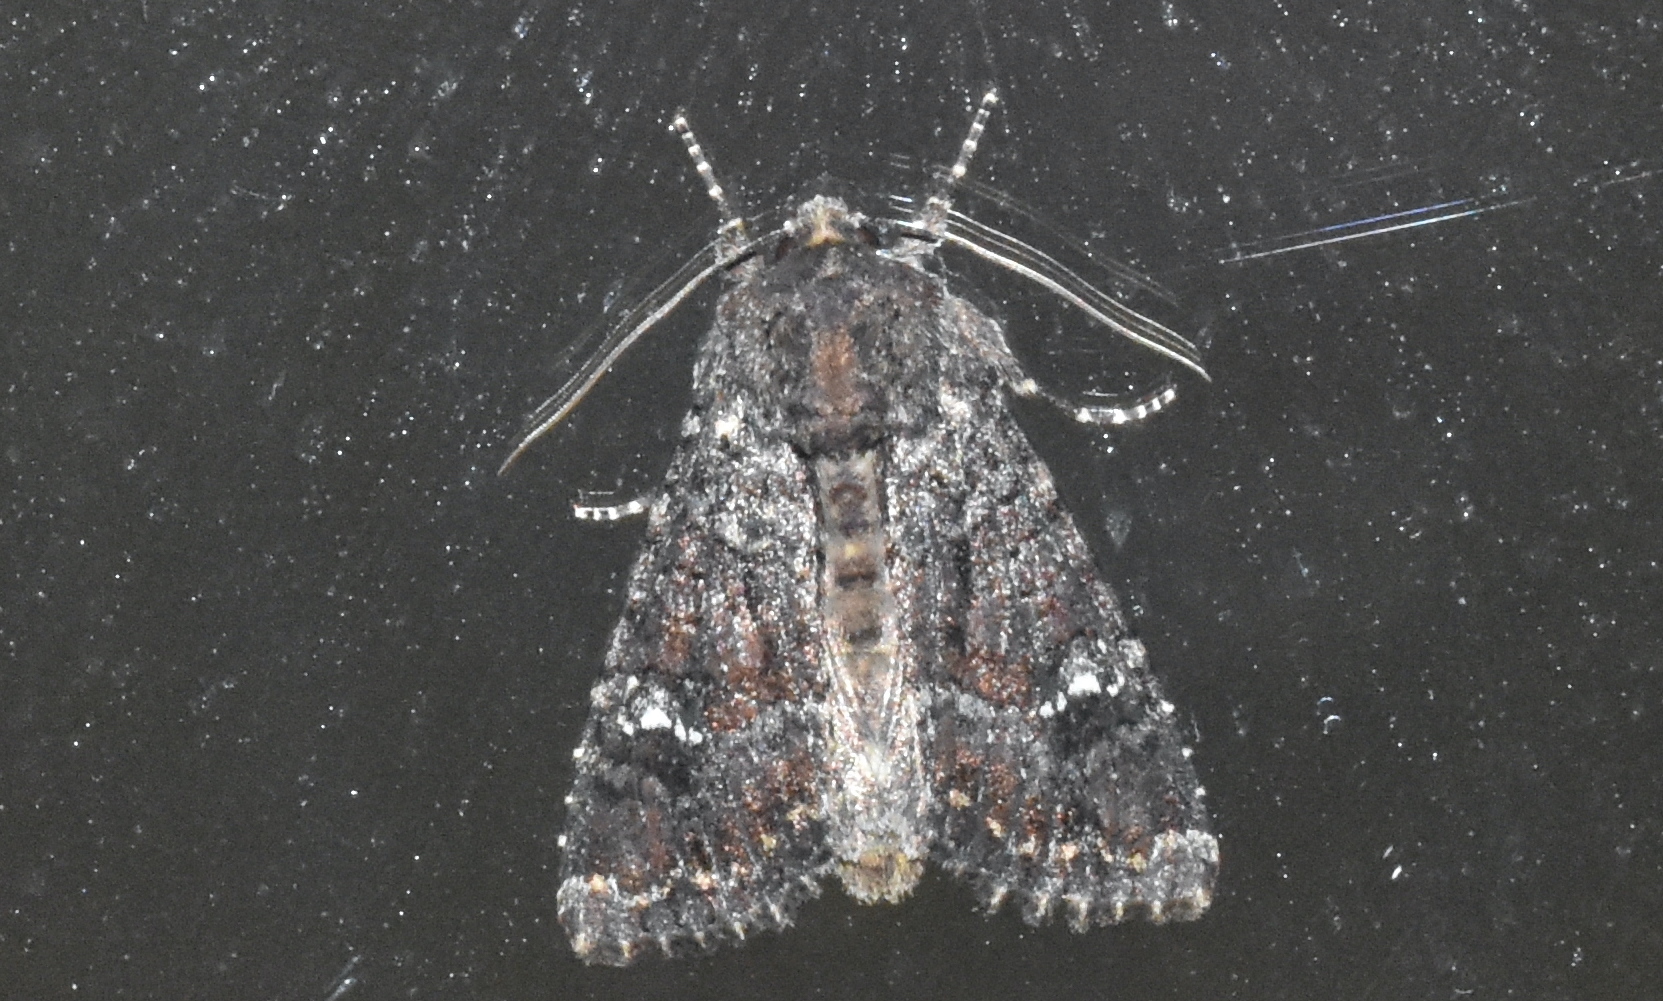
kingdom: Animalia
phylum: Arthropoda
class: Insecta
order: Lepidoptera
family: Noctuidae
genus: Apamea
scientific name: Apamea amputatrix
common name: Yellow-headed cutworm moth
